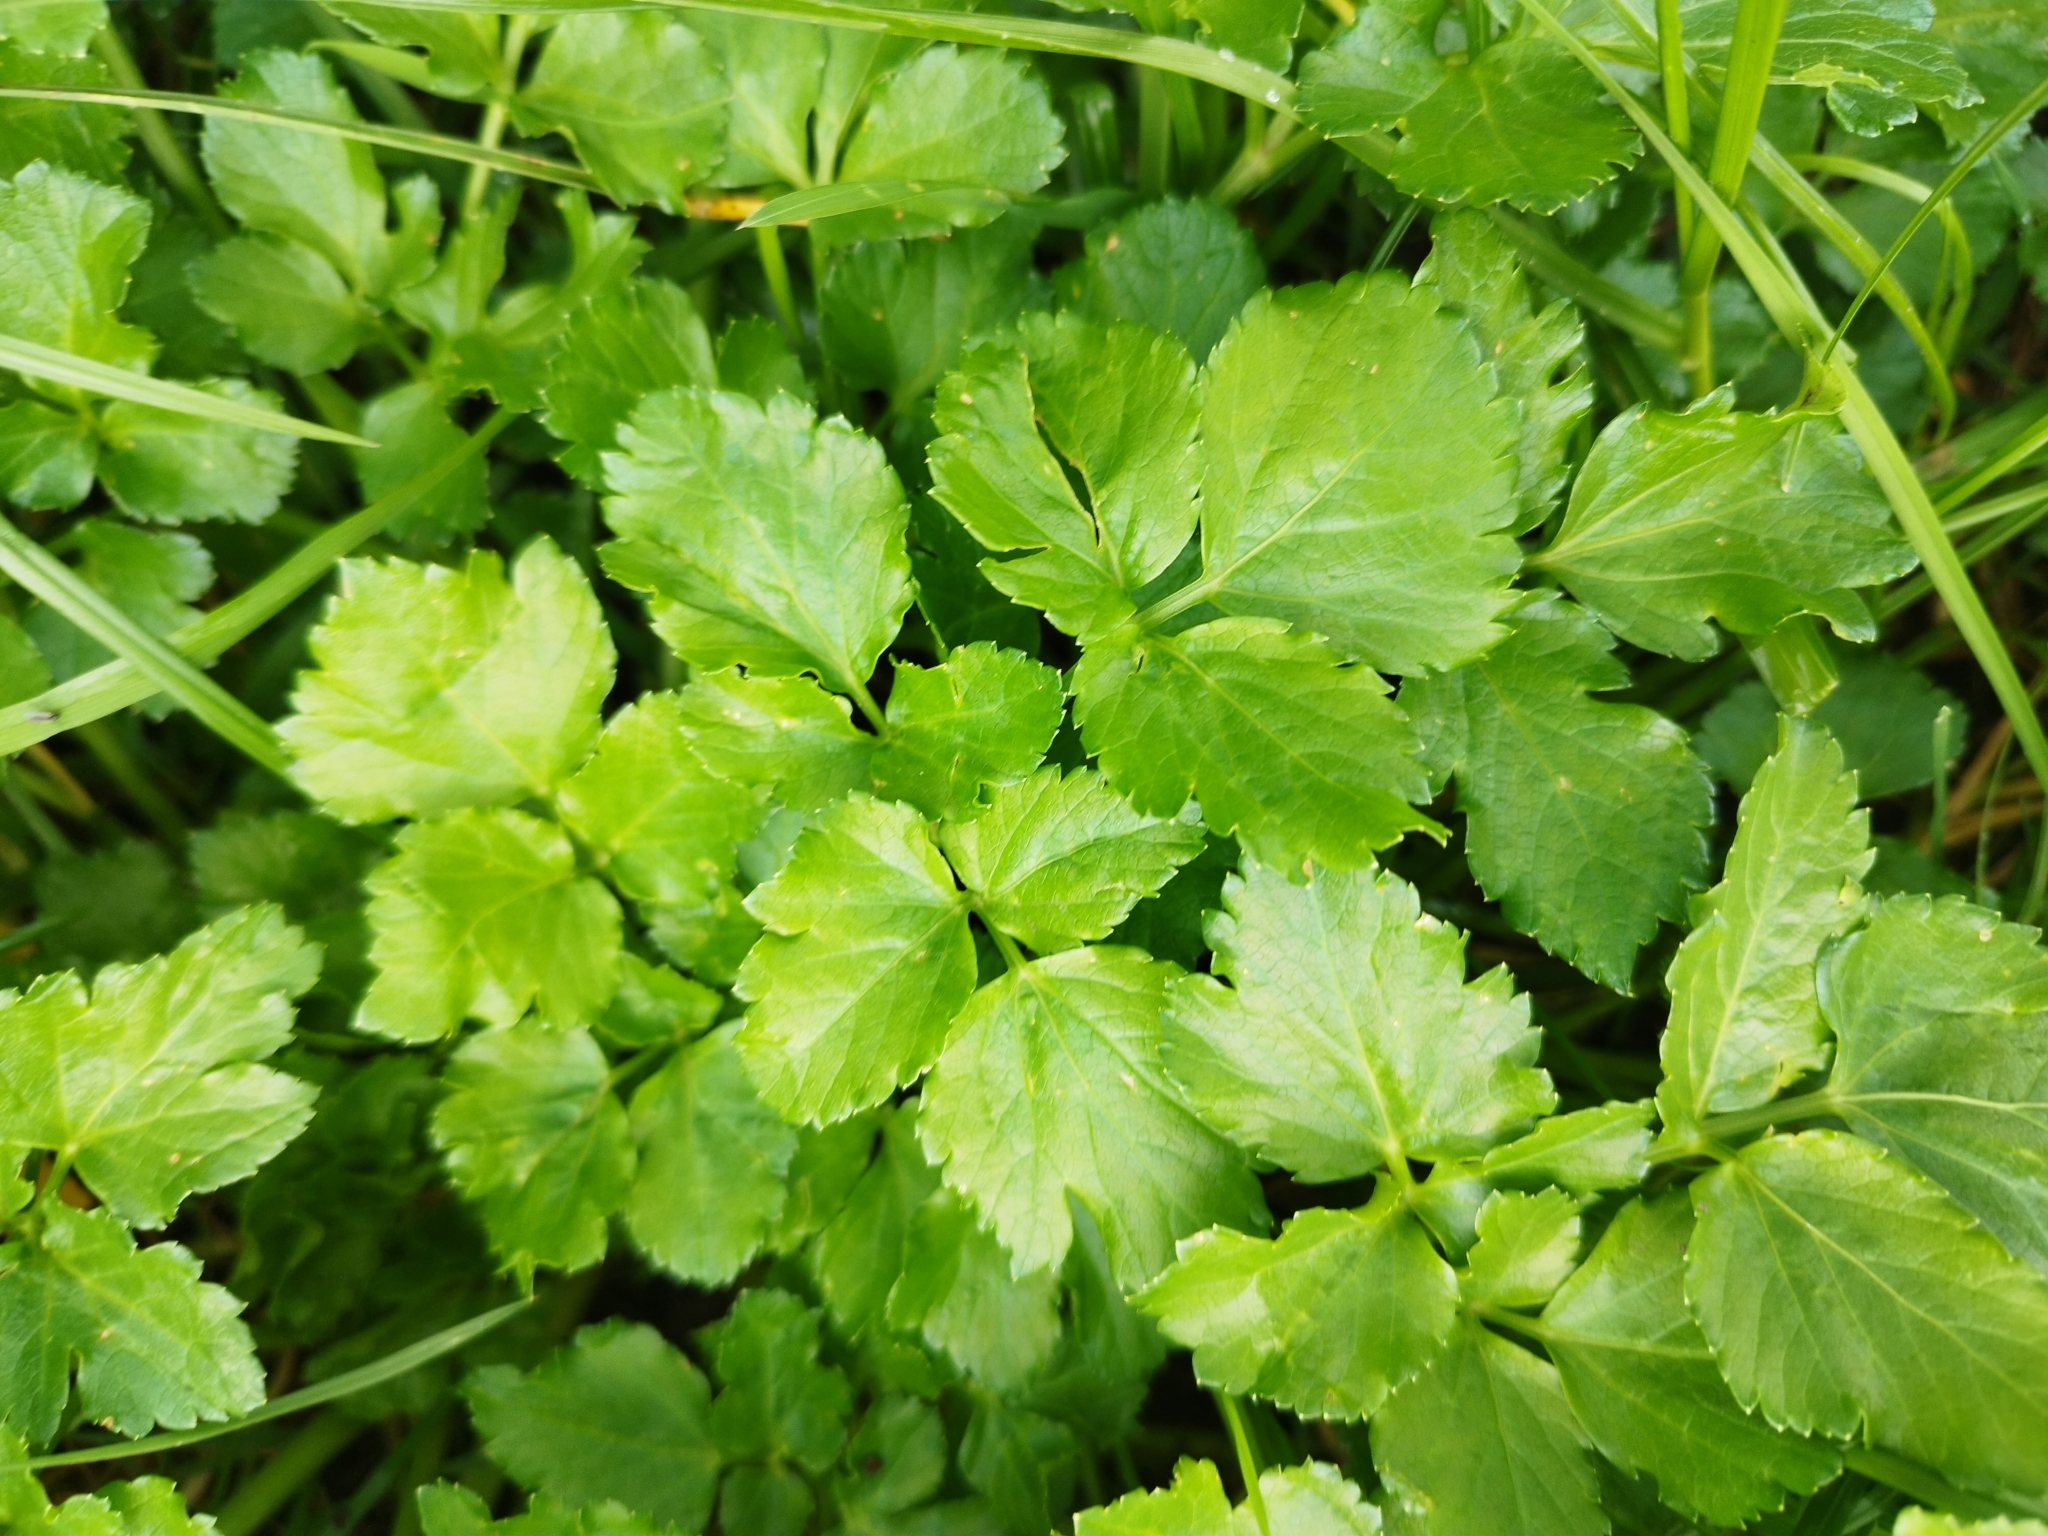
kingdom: Plantae
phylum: Tracheophyta
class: Magnoliopsida
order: Apiales
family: Apiaceae
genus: Smyrnium
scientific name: Smyrnium olusatrum
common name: Alexanders
